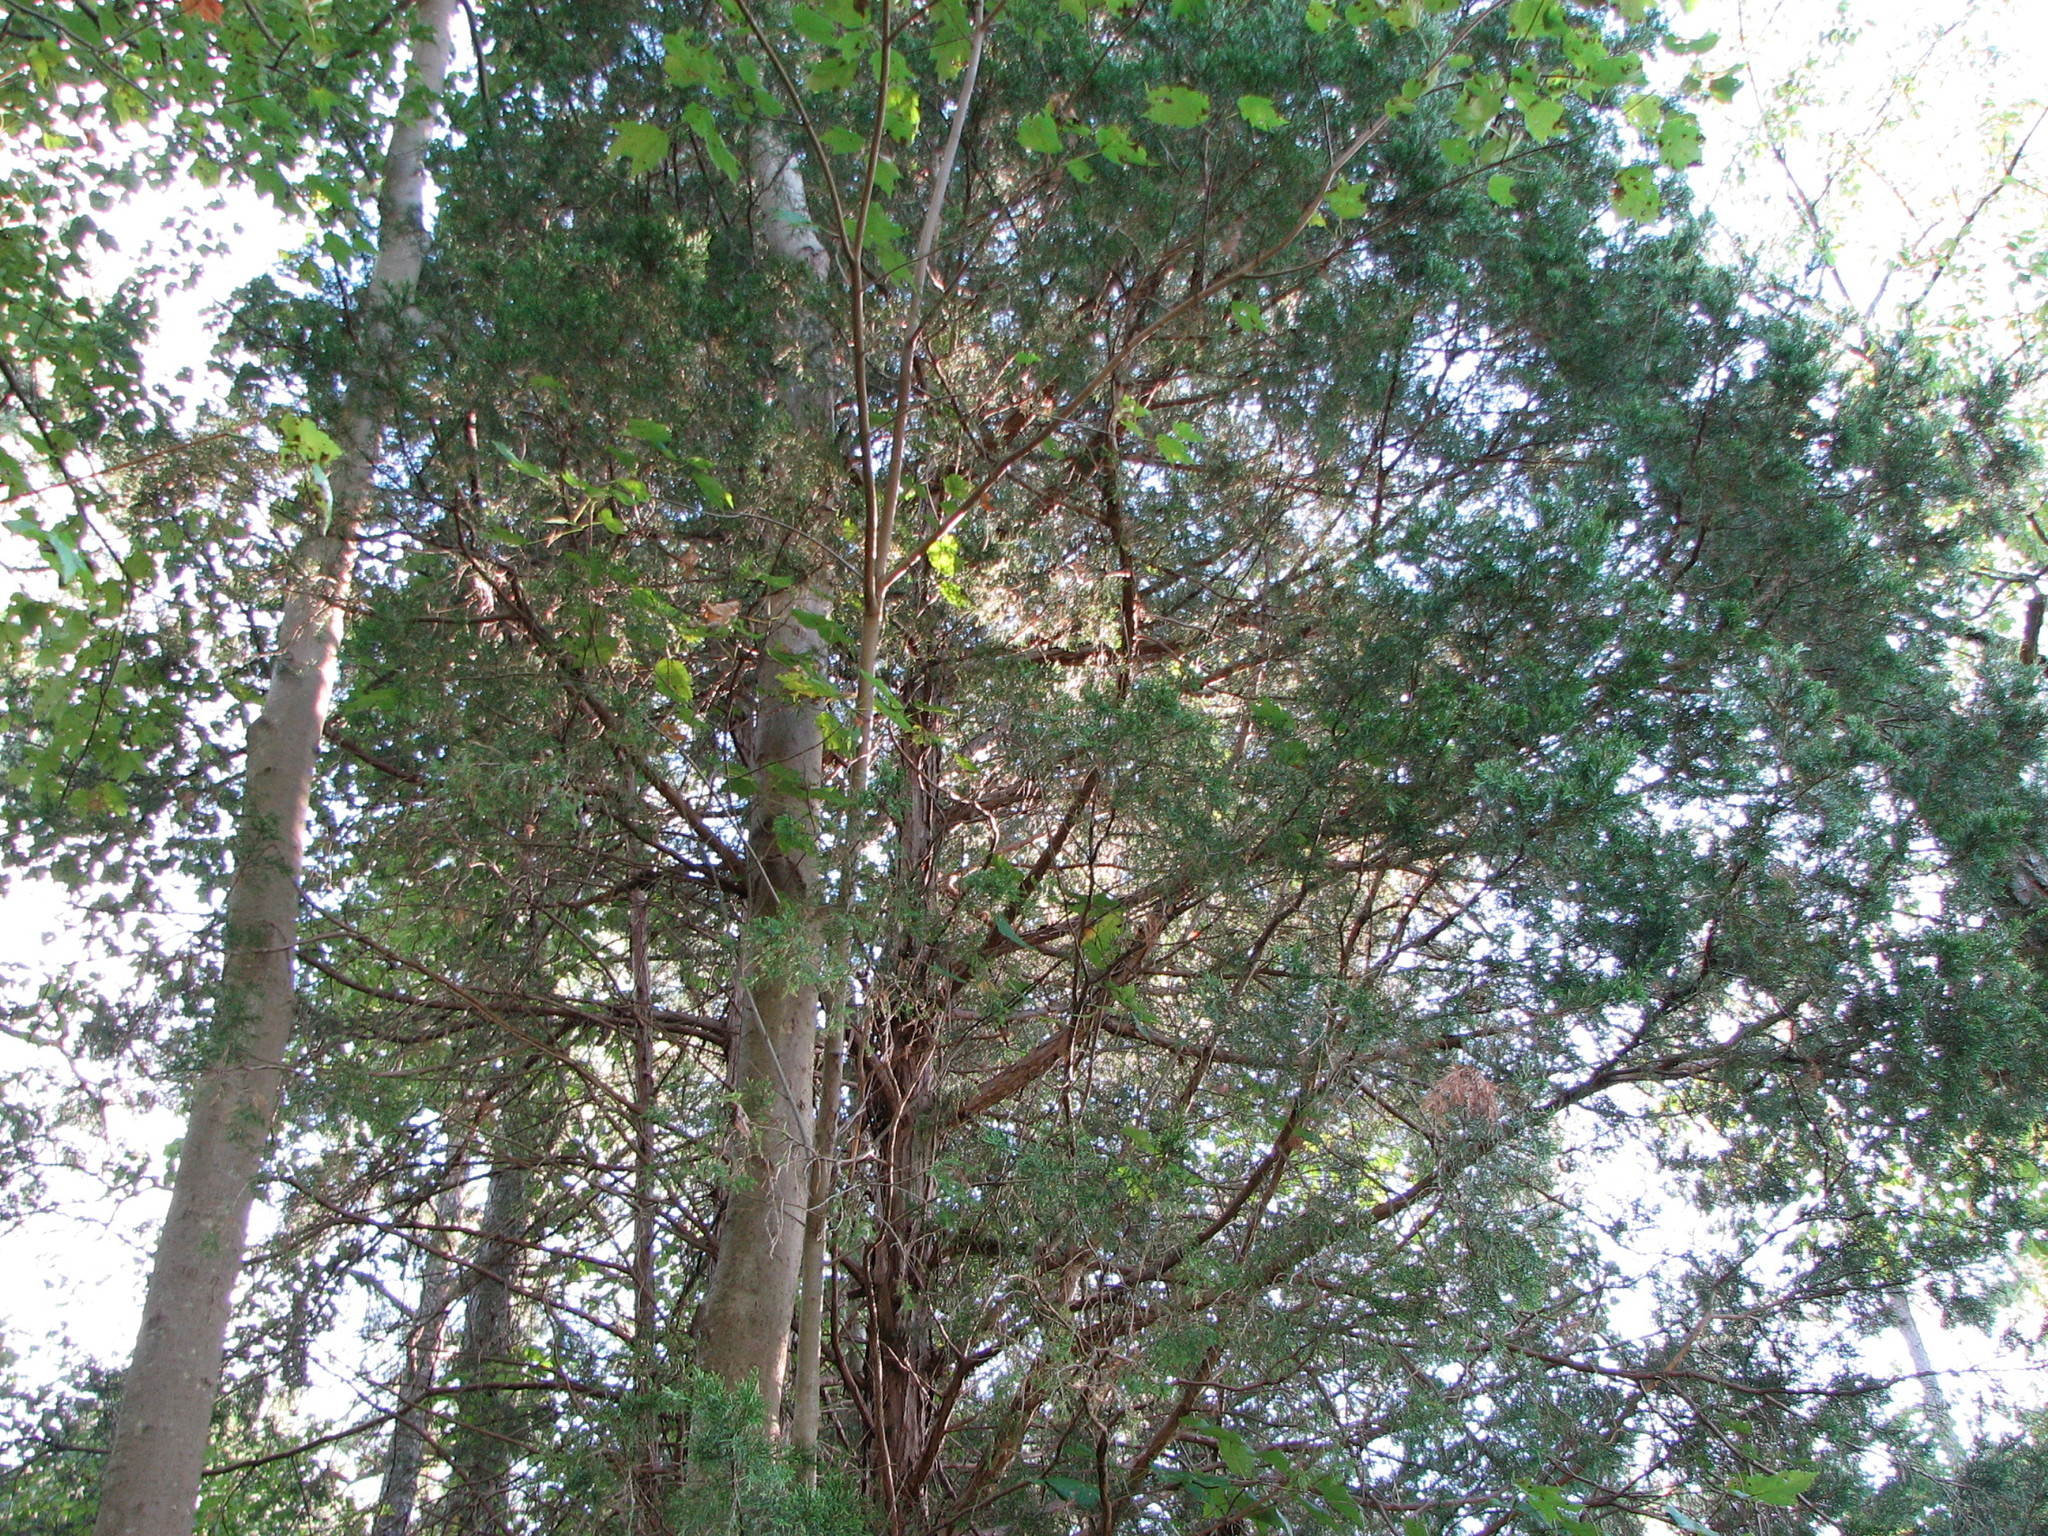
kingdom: Plantae
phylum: Tracheophyta
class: Pinopsida
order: Pinales
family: Cupressaceae
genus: Juniperus
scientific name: Juniperus virginiana
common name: Red juniper
